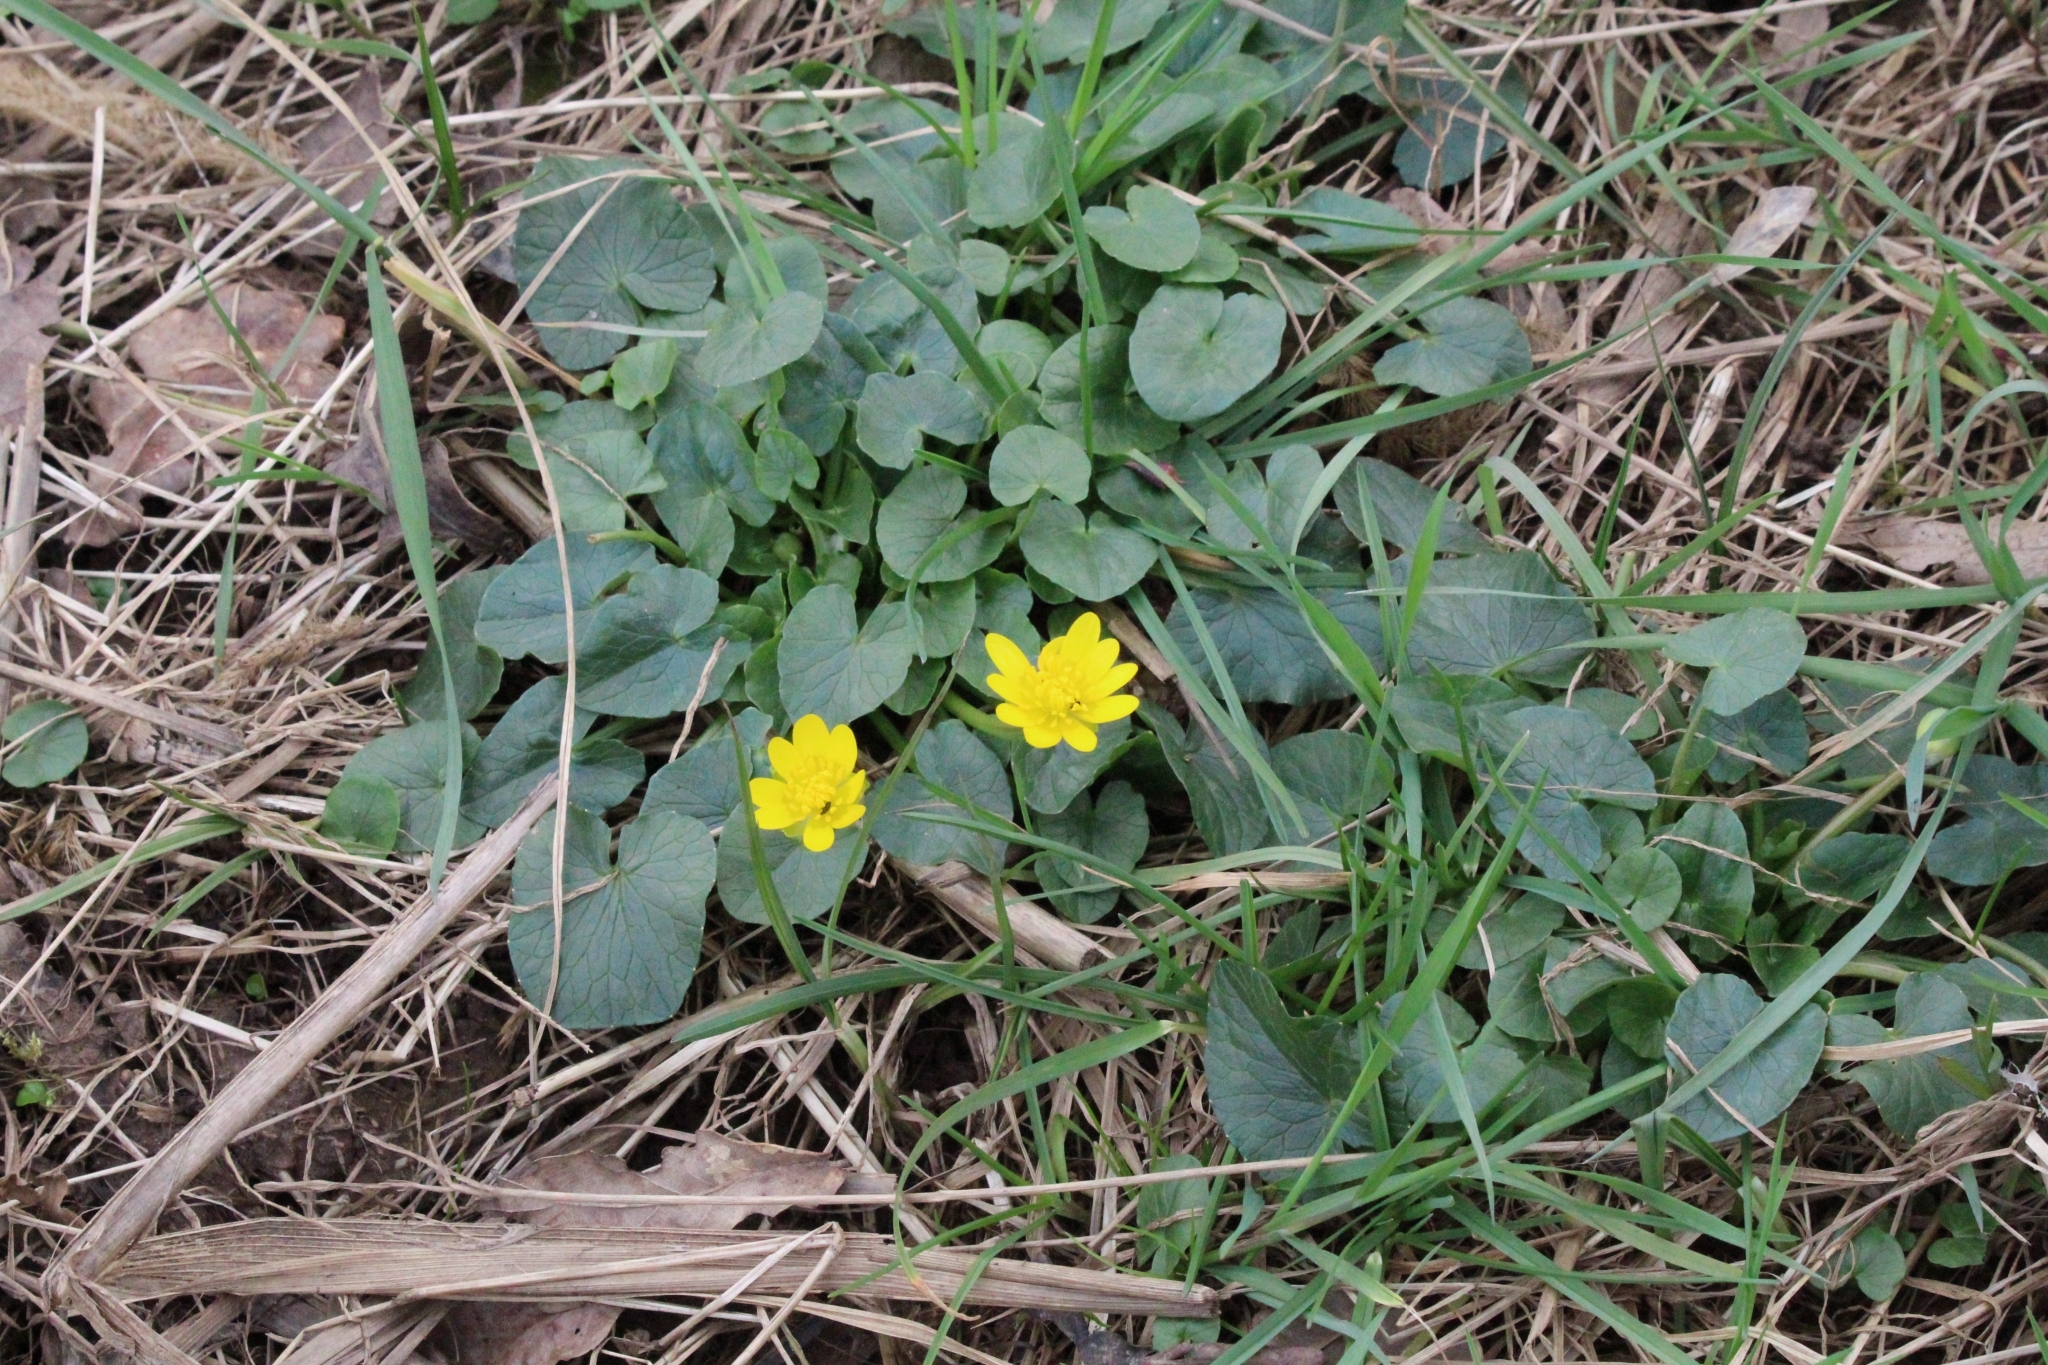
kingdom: Plantae
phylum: Tracheophyta
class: Magnoliopsida
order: Ranunculales
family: Ranunculaceae
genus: Ficaria
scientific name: Ficaria verna
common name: Lesser celandine
